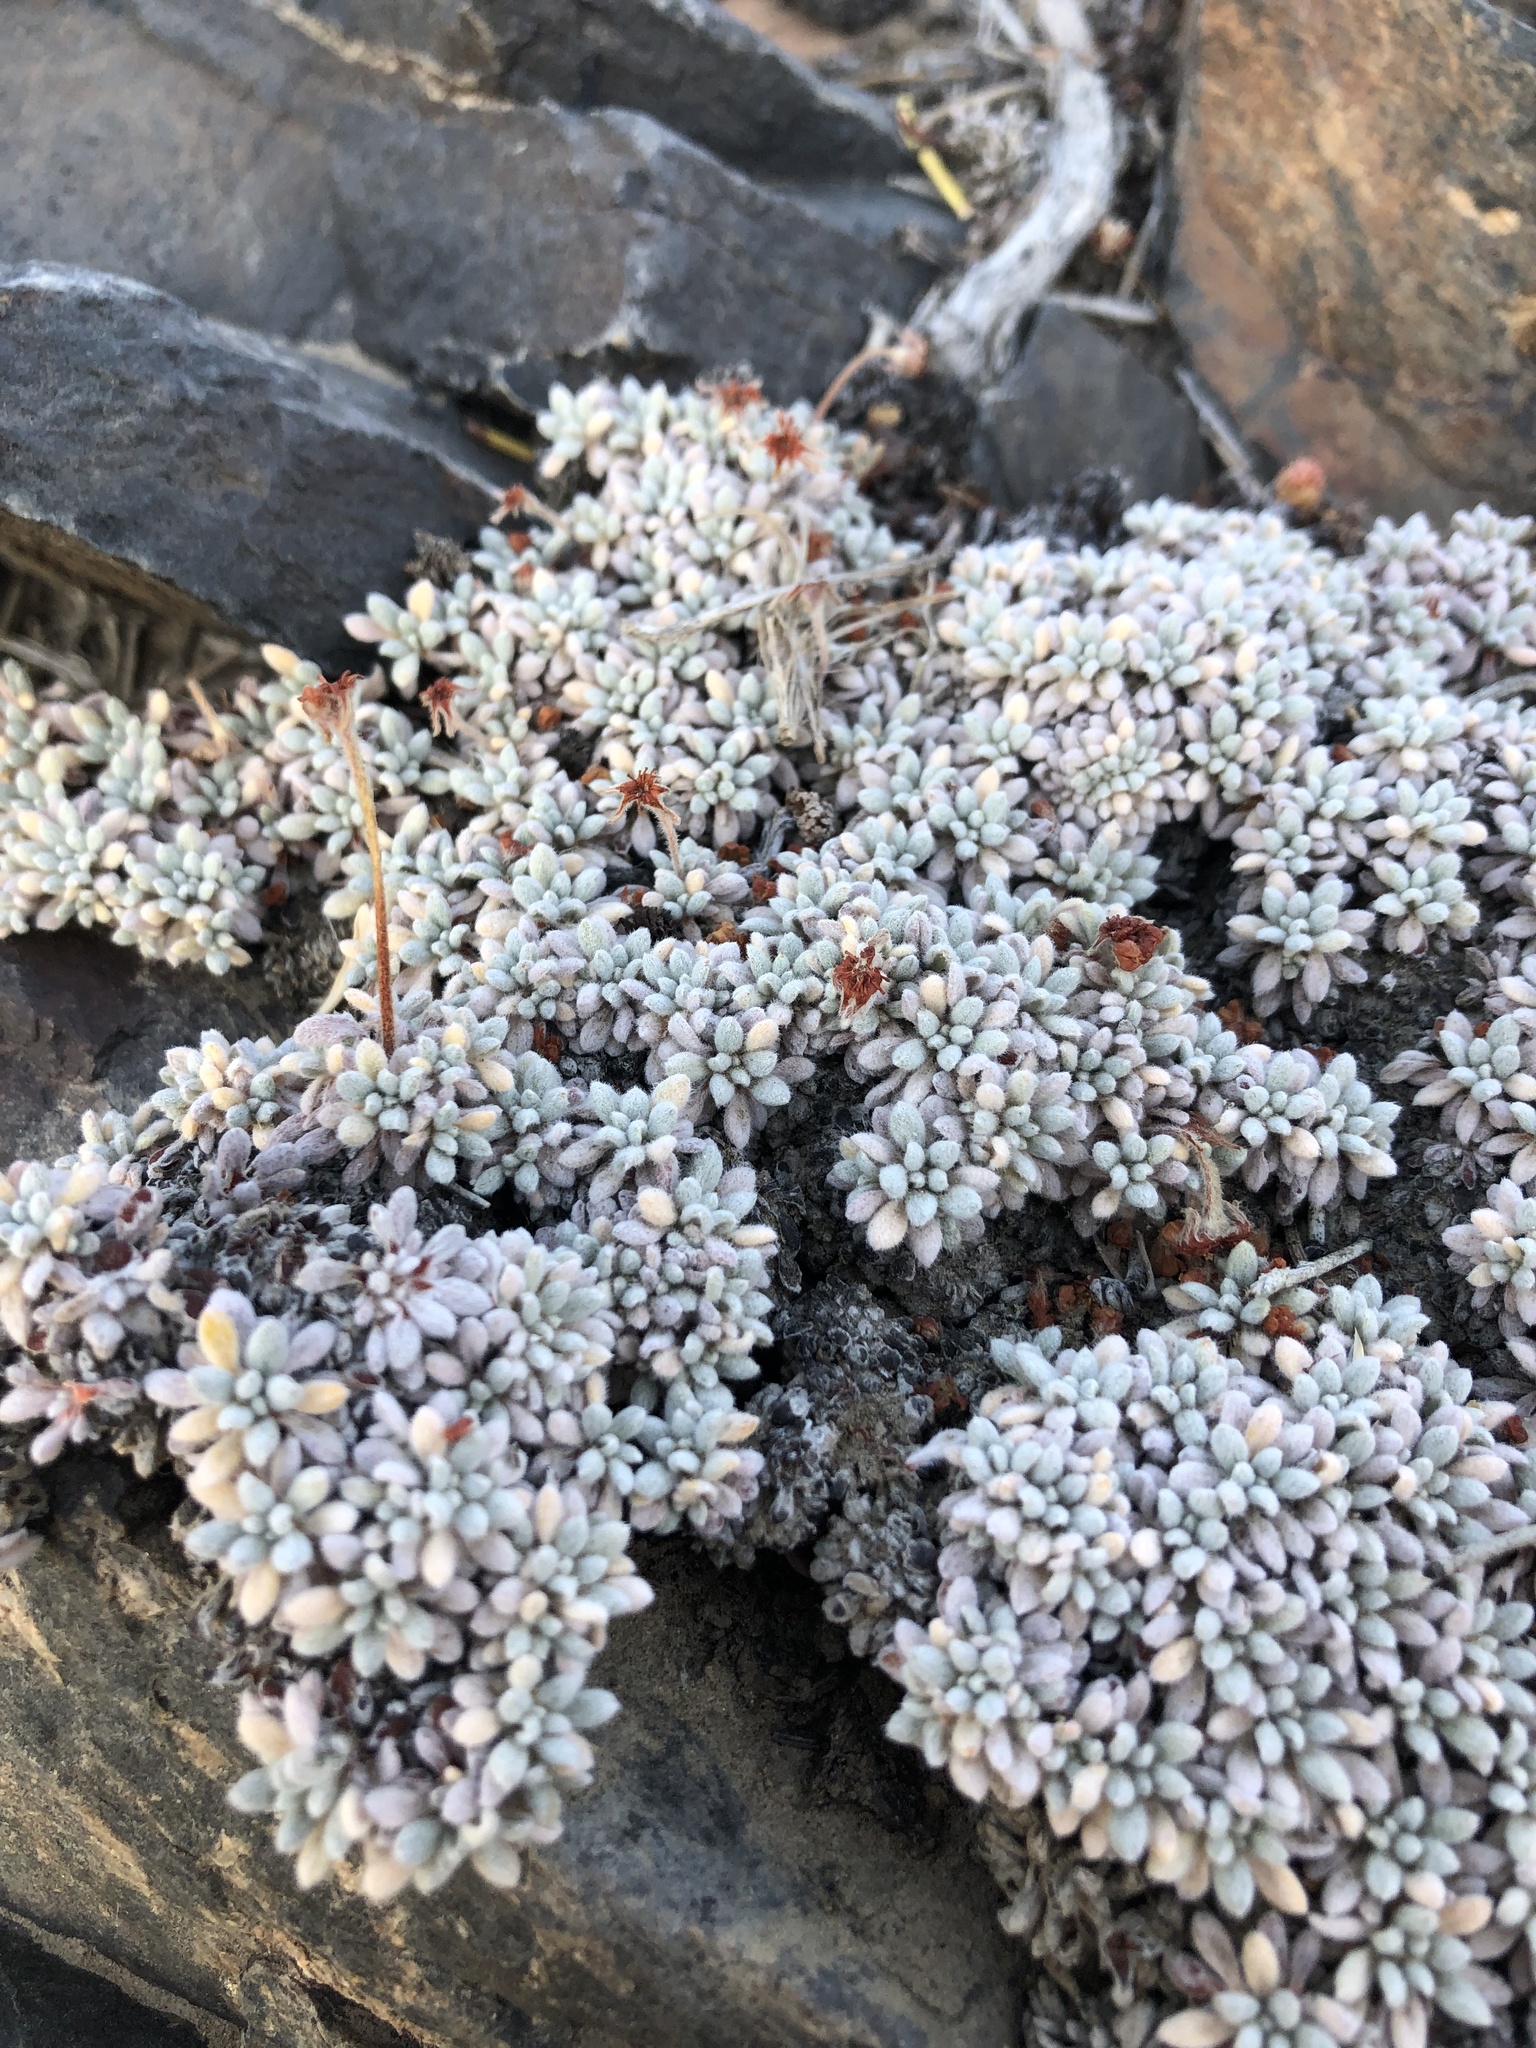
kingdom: Plantae
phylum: Tracheophyta
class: Magnoliopsida
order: Caryophyllales
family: Polygonaceae
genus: Eriogonum
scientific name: Eriogonum caespitosum
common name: Matted wild buckwheat
